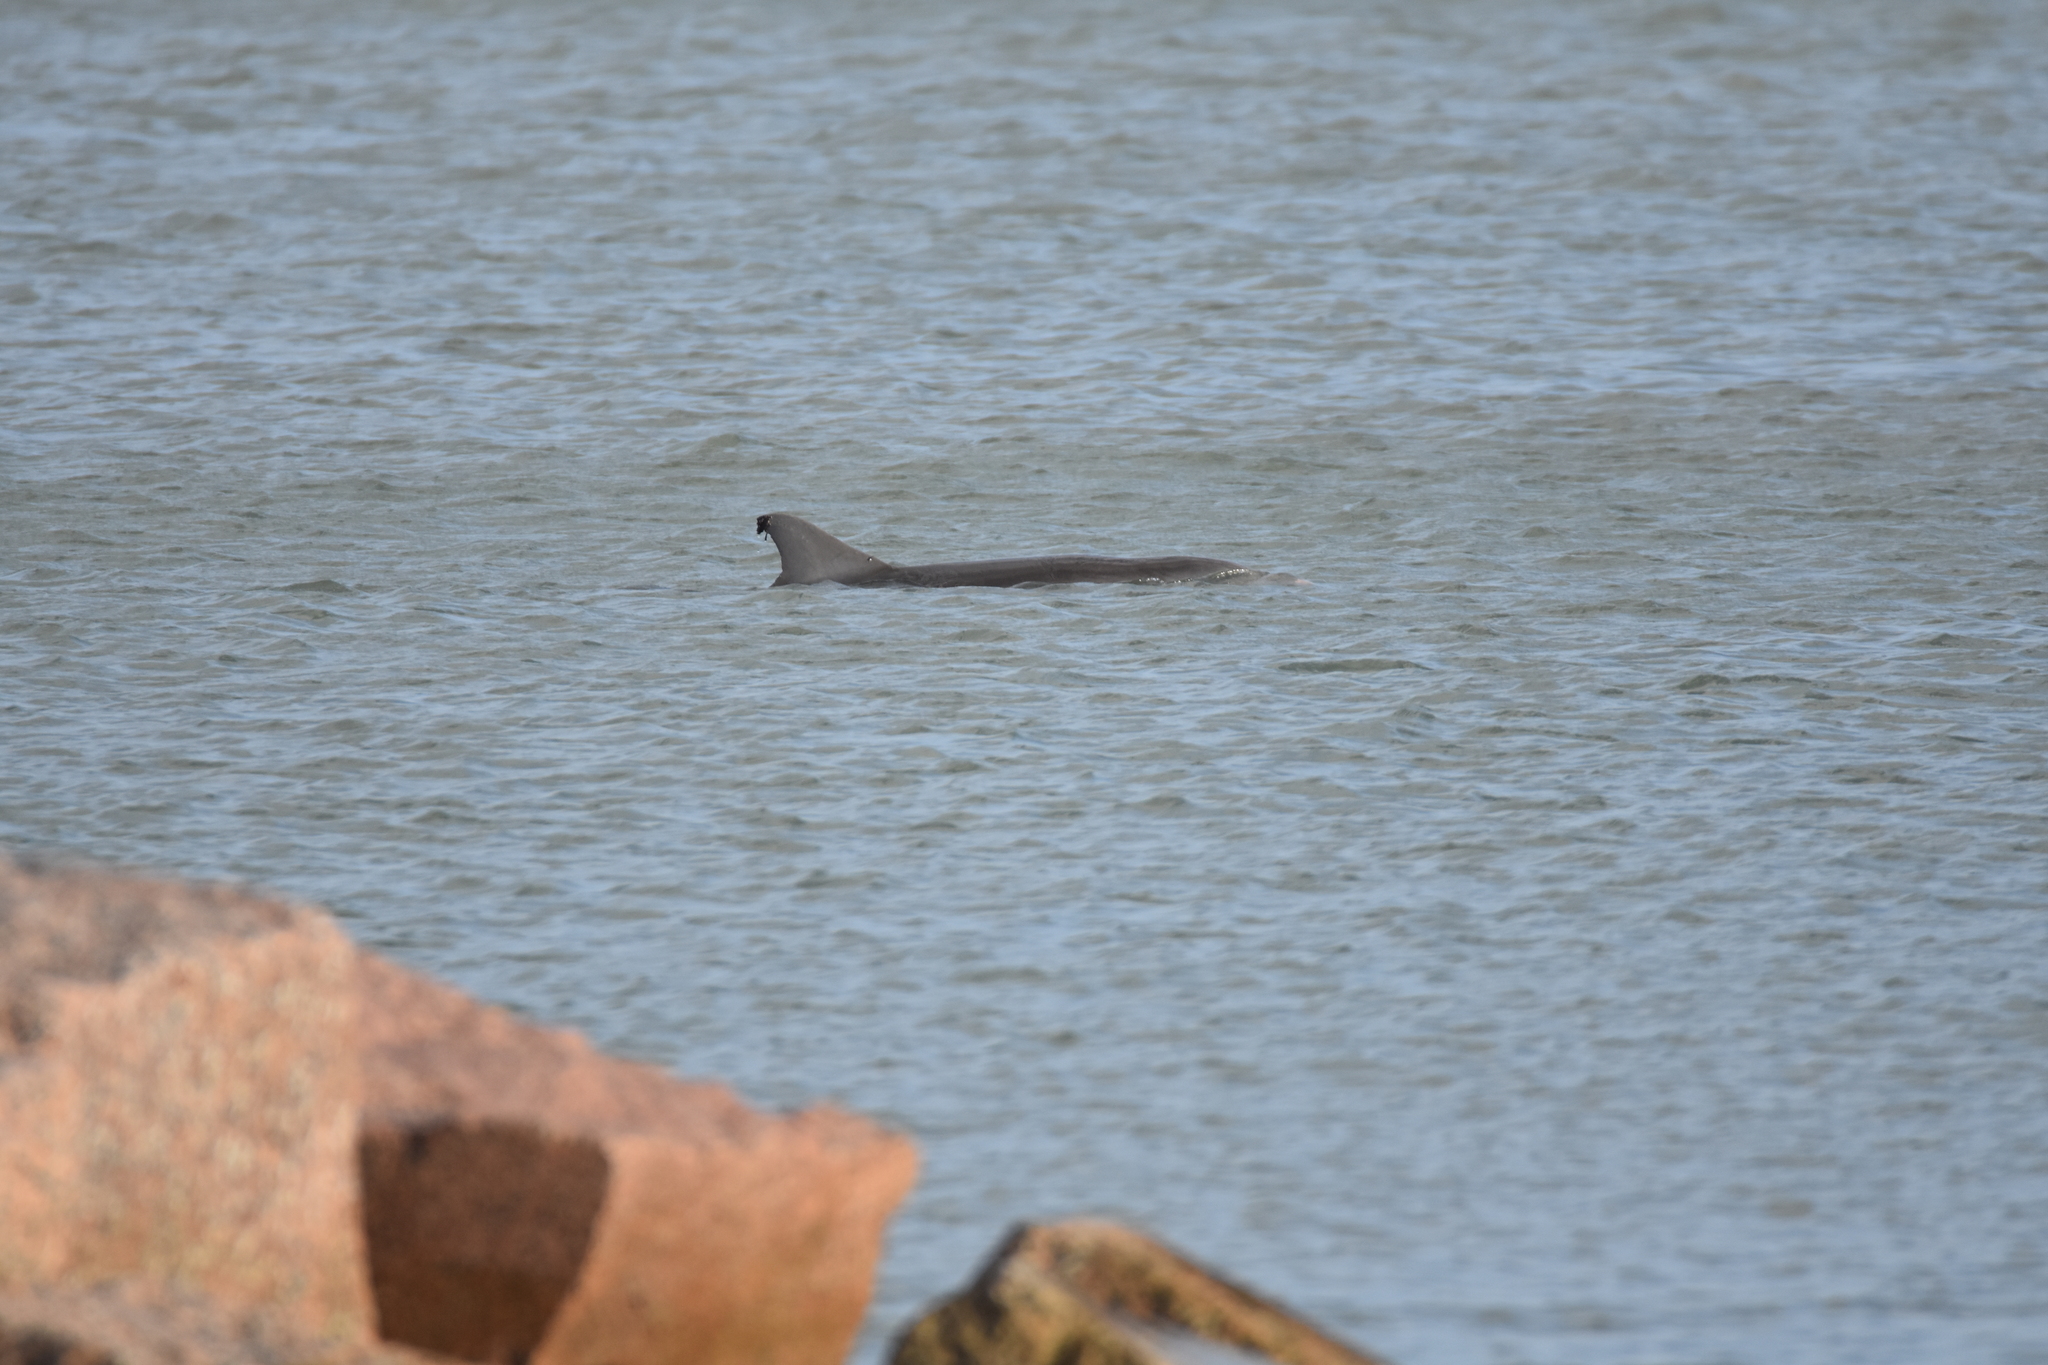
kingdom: Animalia
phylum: Chordata
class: Mammalia
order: Cetacea
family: Delphinidae
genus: Tursiops
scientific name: Tursiops truncatus
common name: Bottlenose dolphin
